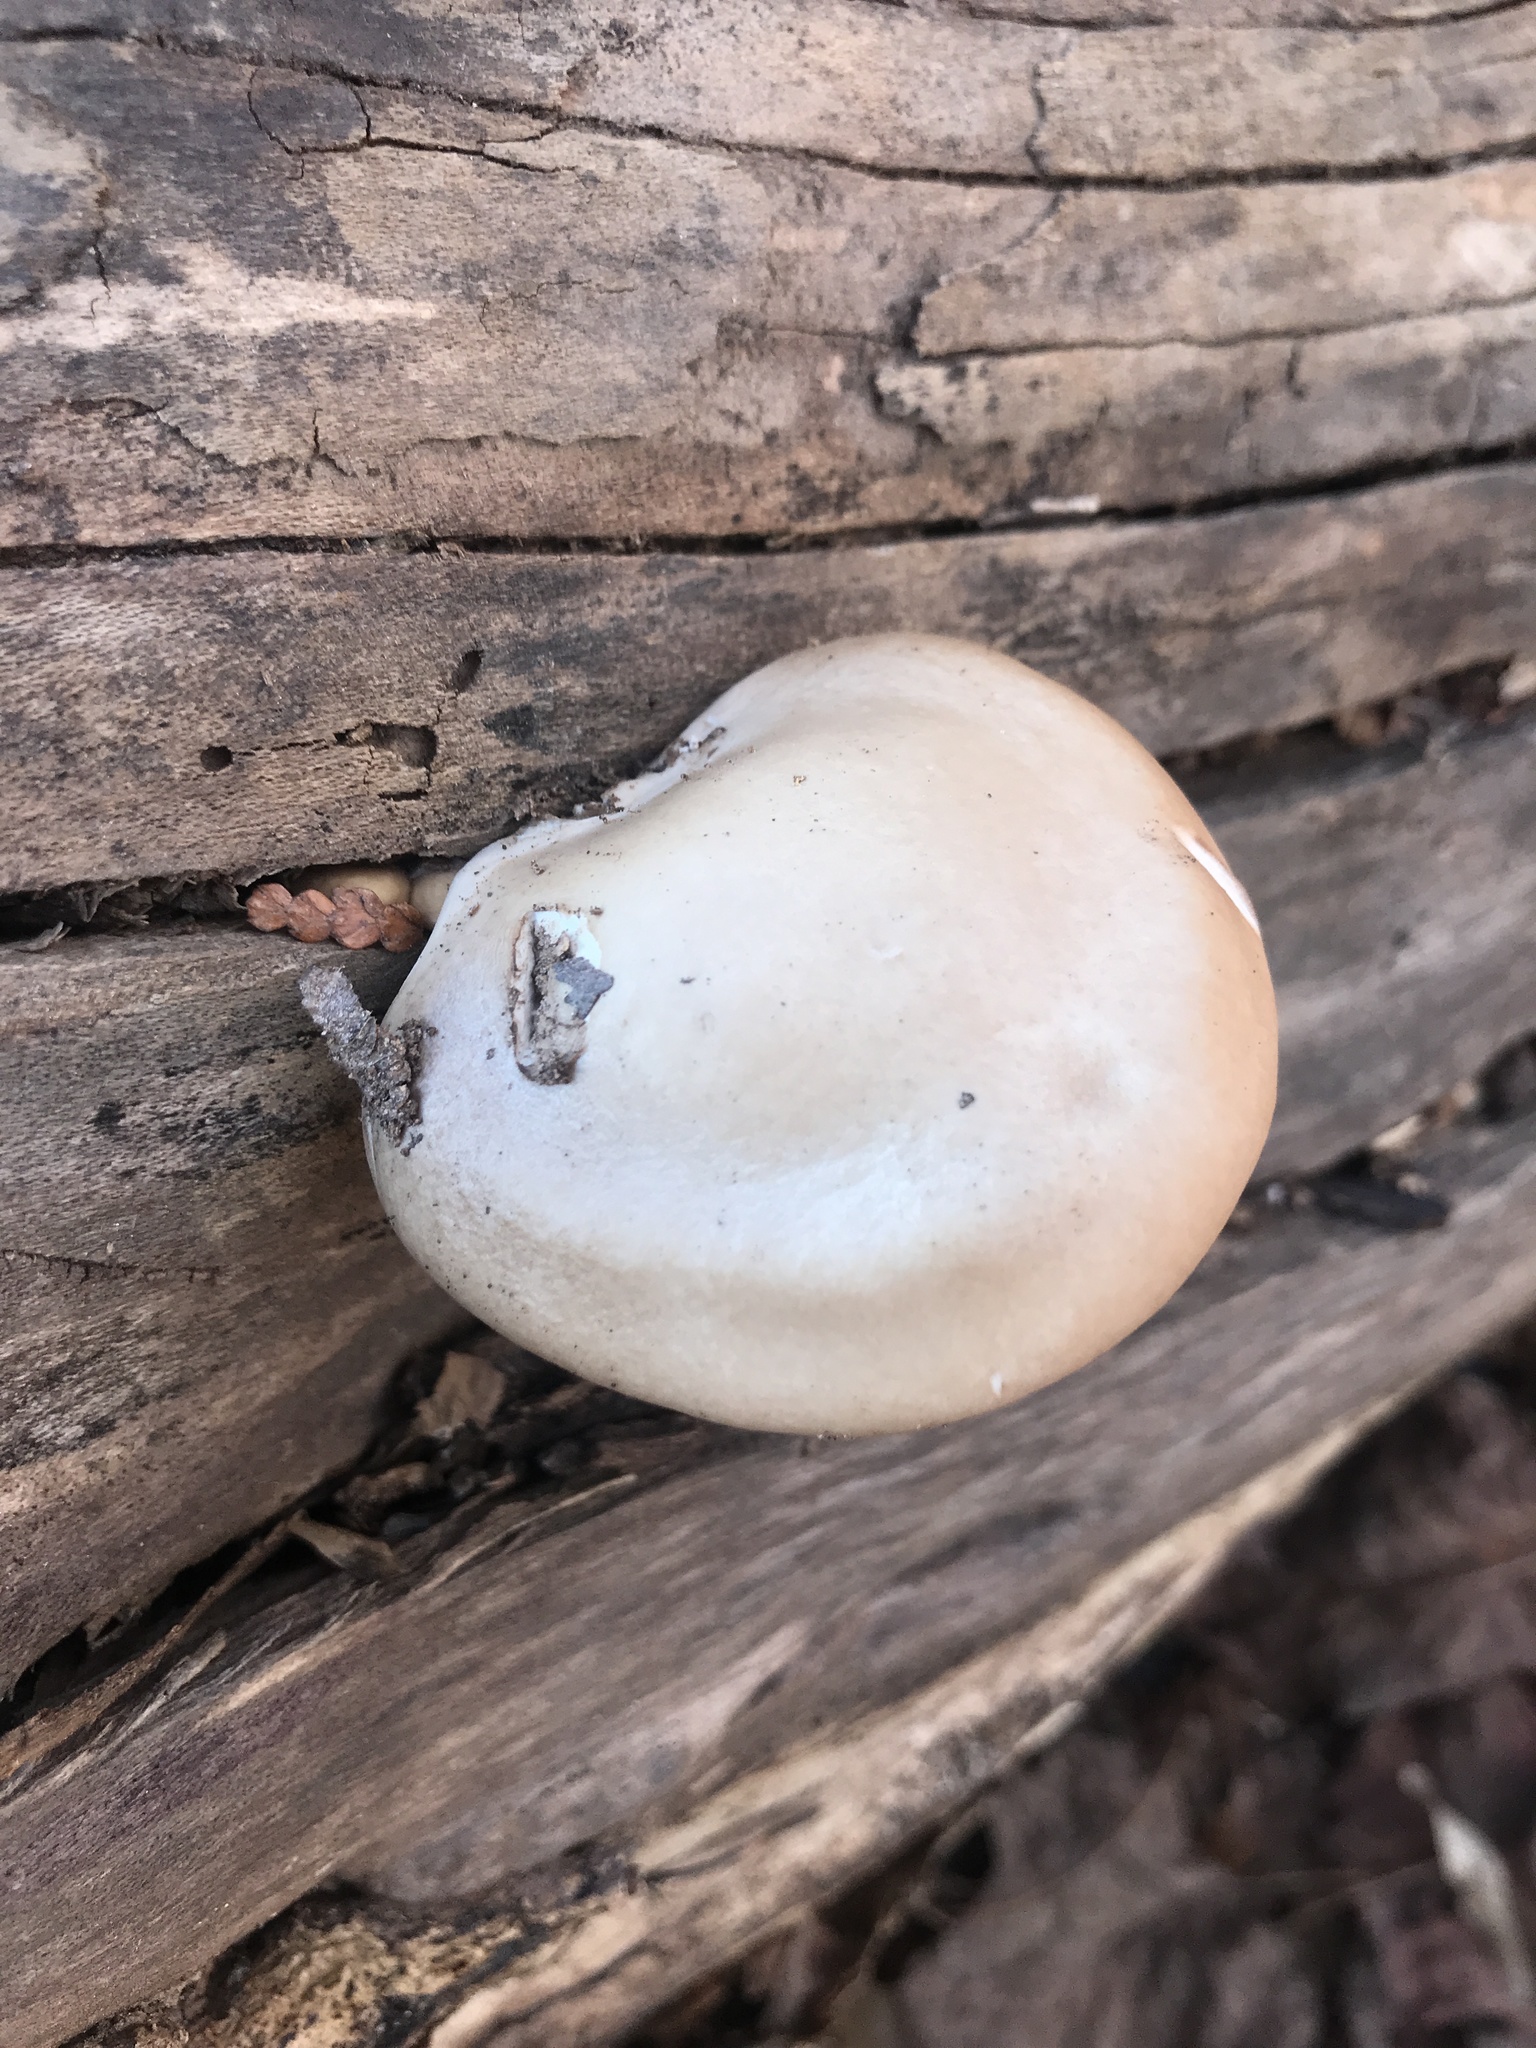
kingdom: Fungi
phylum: Basidiomycota
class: Agaricomycetes
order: Agaricales
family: Pleurotaceae
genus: Pleurotus
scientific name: Pleurotus ostreatus
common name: Oyster mushroom
